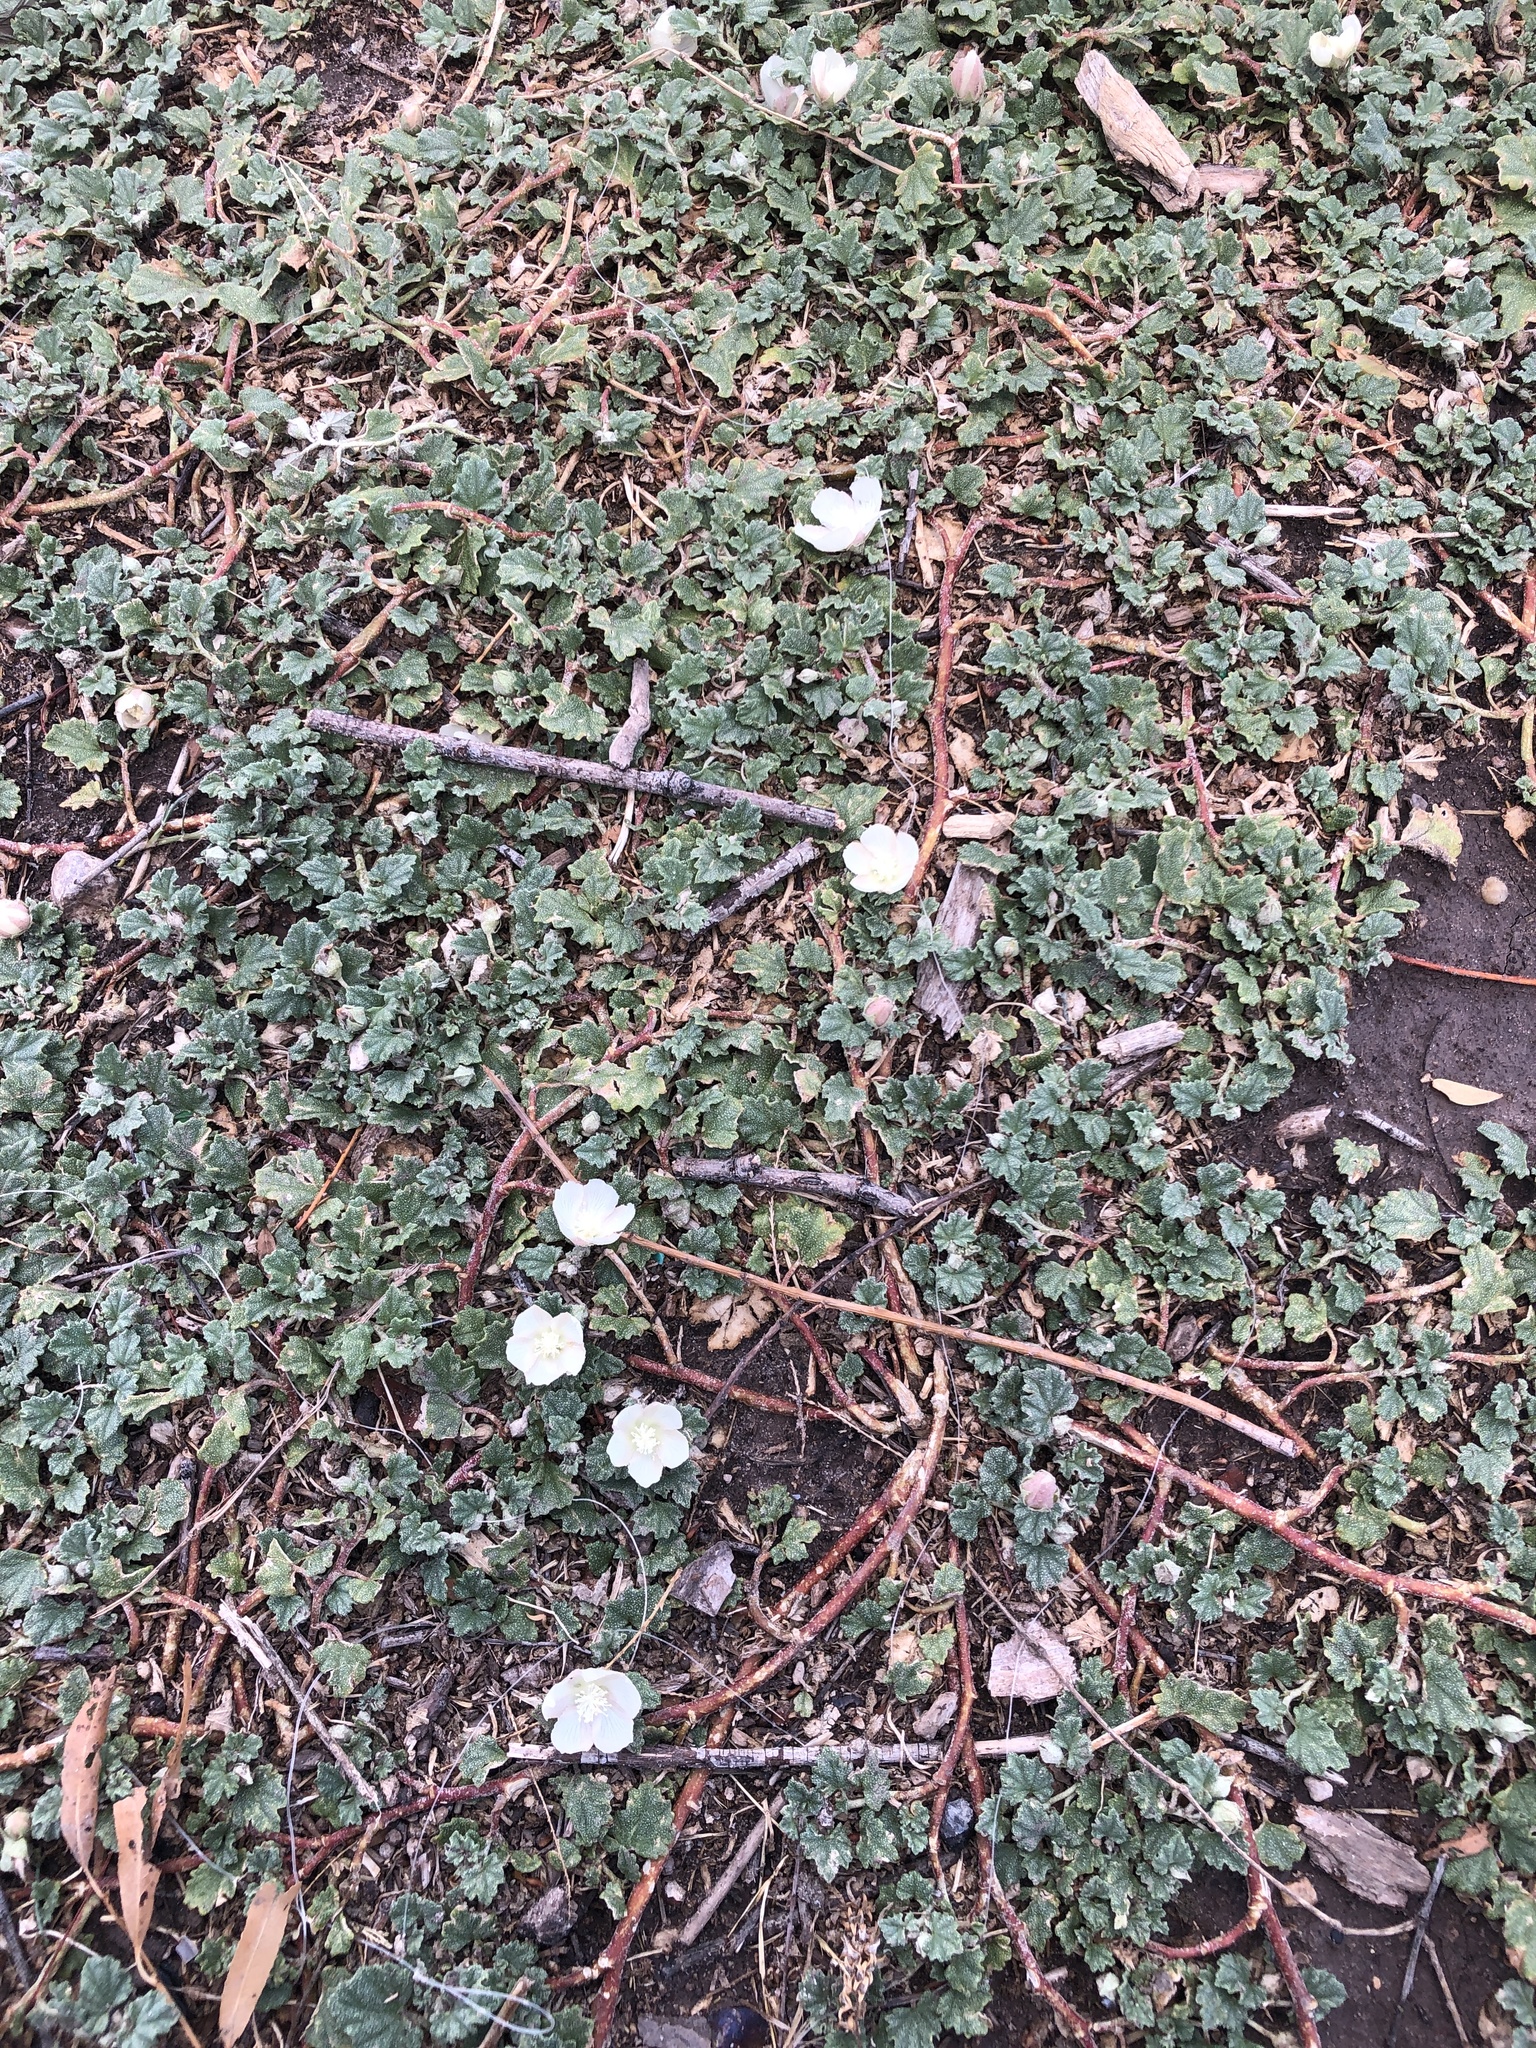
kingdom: Plantae
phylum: Tracheophyta
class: Magnoliopsida
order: Malvales
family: Malvaceae
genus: Malvella
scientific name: Malvella leprosa
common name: Alkali-mallow
